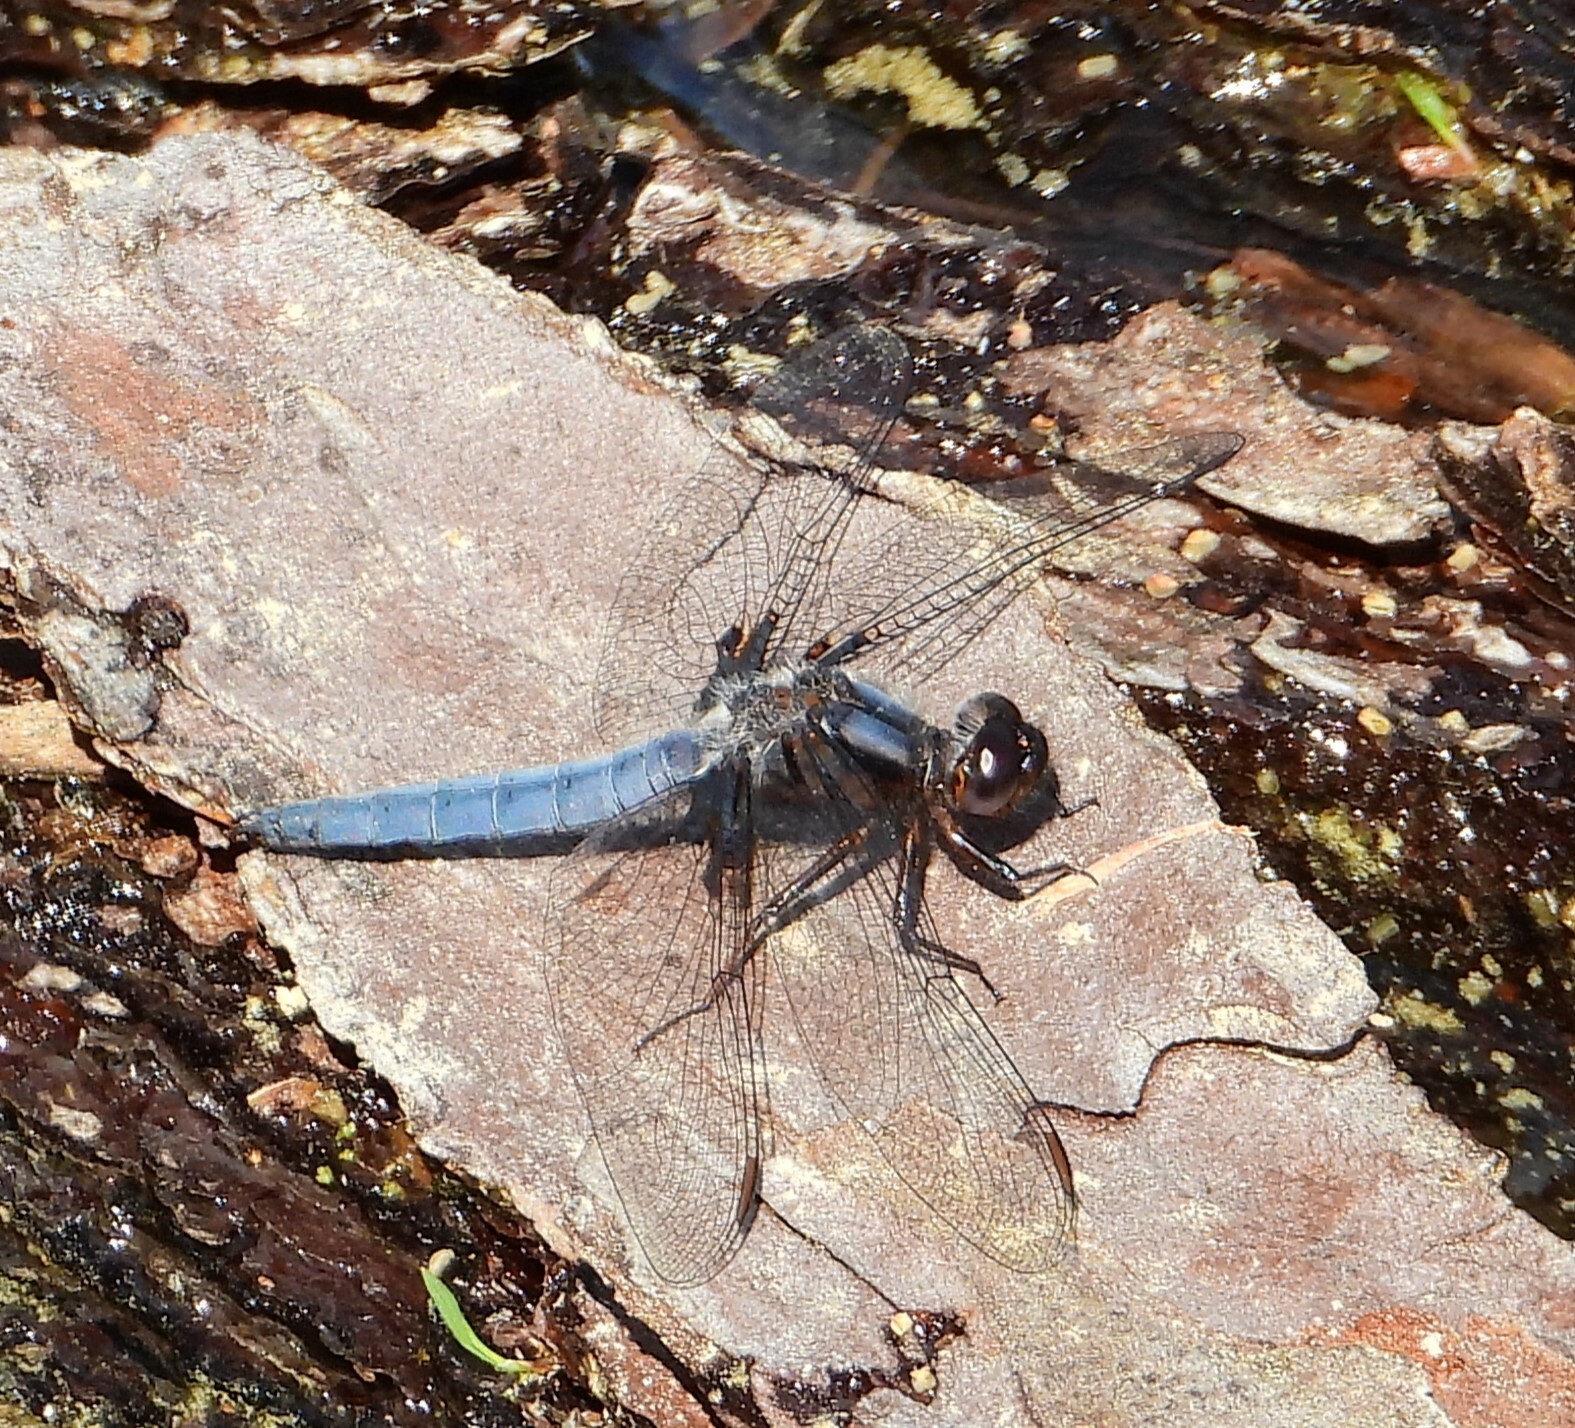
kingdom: Animalia
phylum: Arthropoda
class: Insecta
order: Odonata
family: Libellulidae
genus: Ladona
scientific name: Ladona deplanata
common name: Blue corporal
